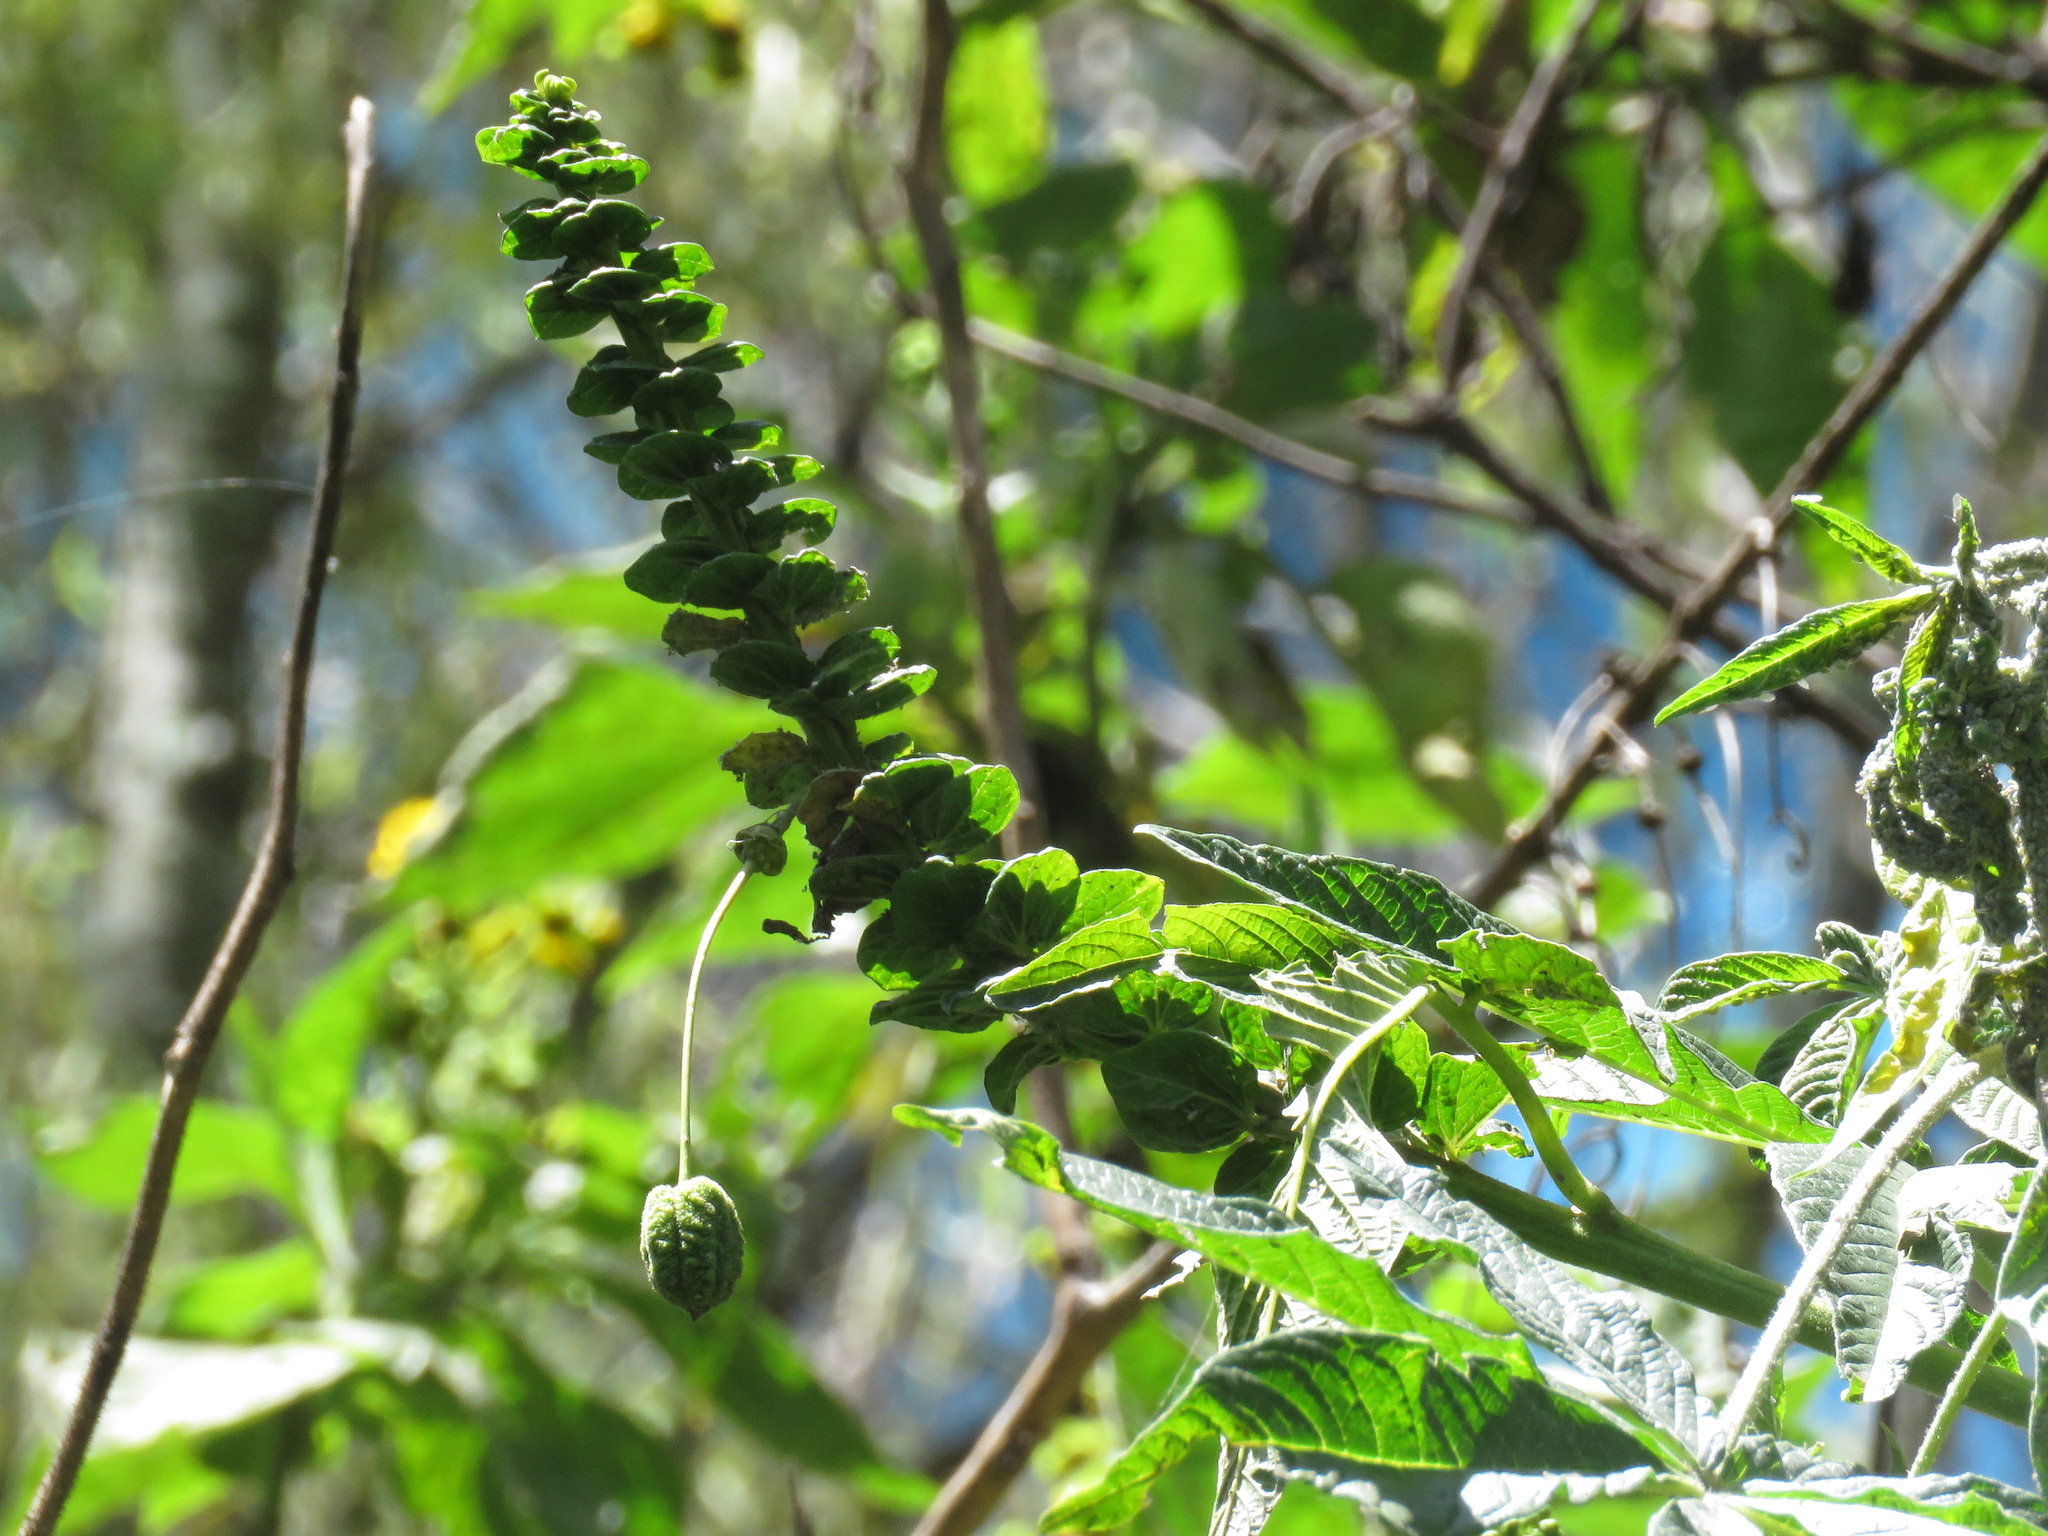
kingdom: Plantae
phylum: Tracheophyta
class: Magnoliopsida
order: Brassicales
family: Cleomaceae
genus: Andinocleome
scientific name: Andinocleome anomala
